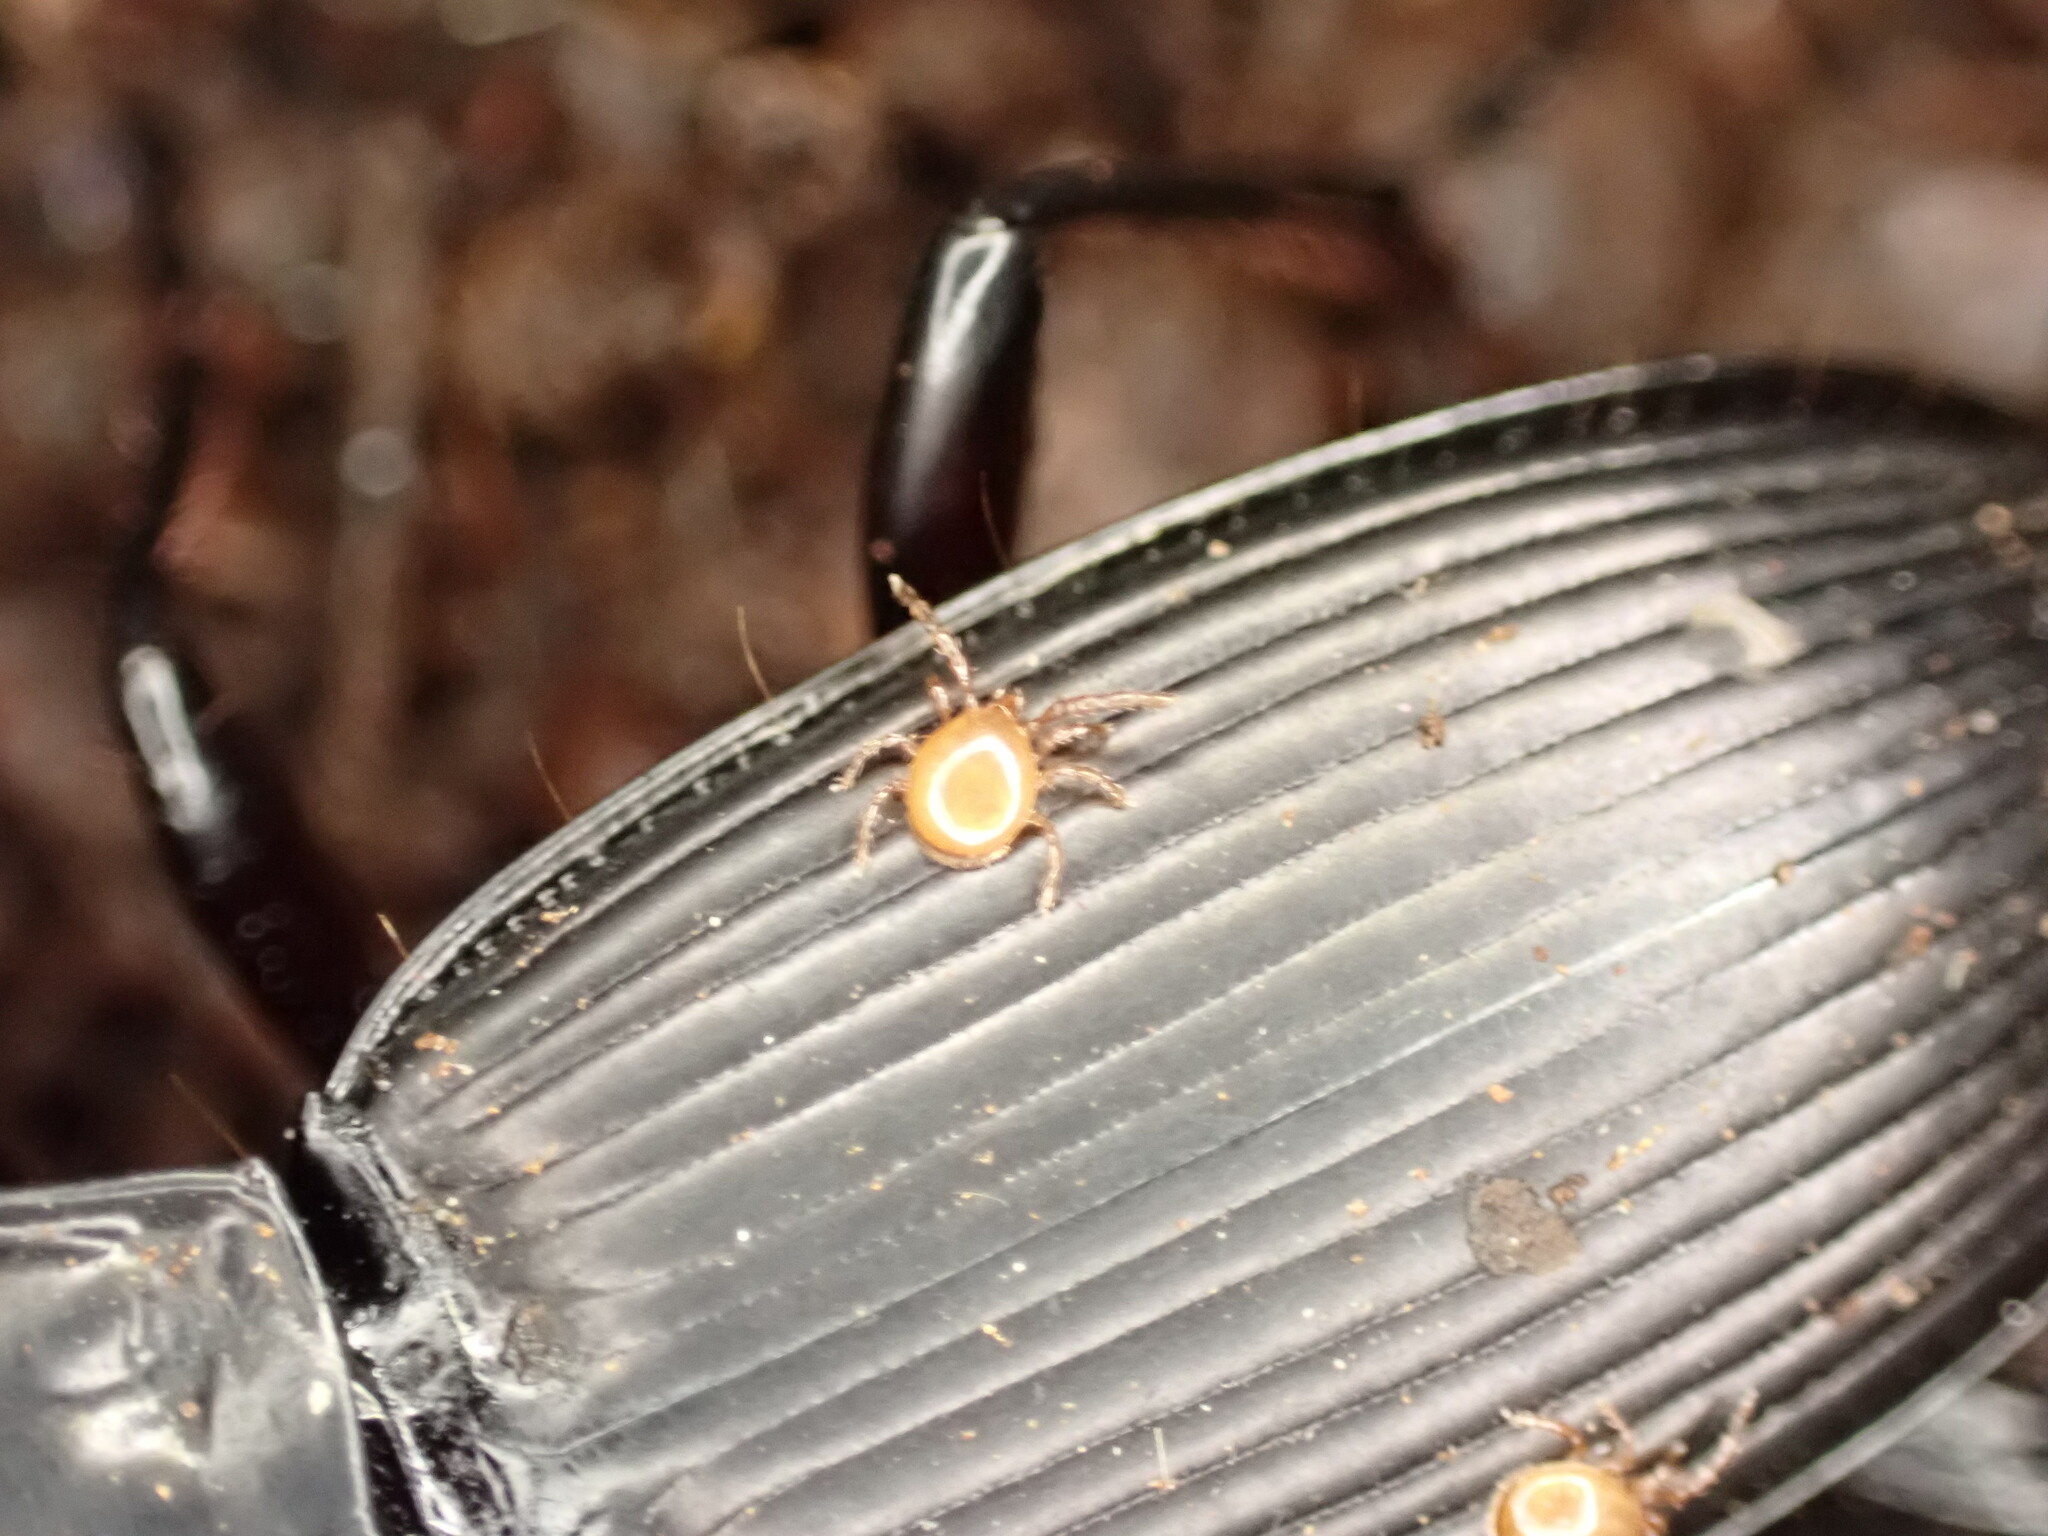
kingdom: Animalia
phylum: Arthropoda
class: Arachnida
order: Mesostigmata
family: Discozerconidae
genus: Berzercon
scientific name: Berzercon ferdinandi
